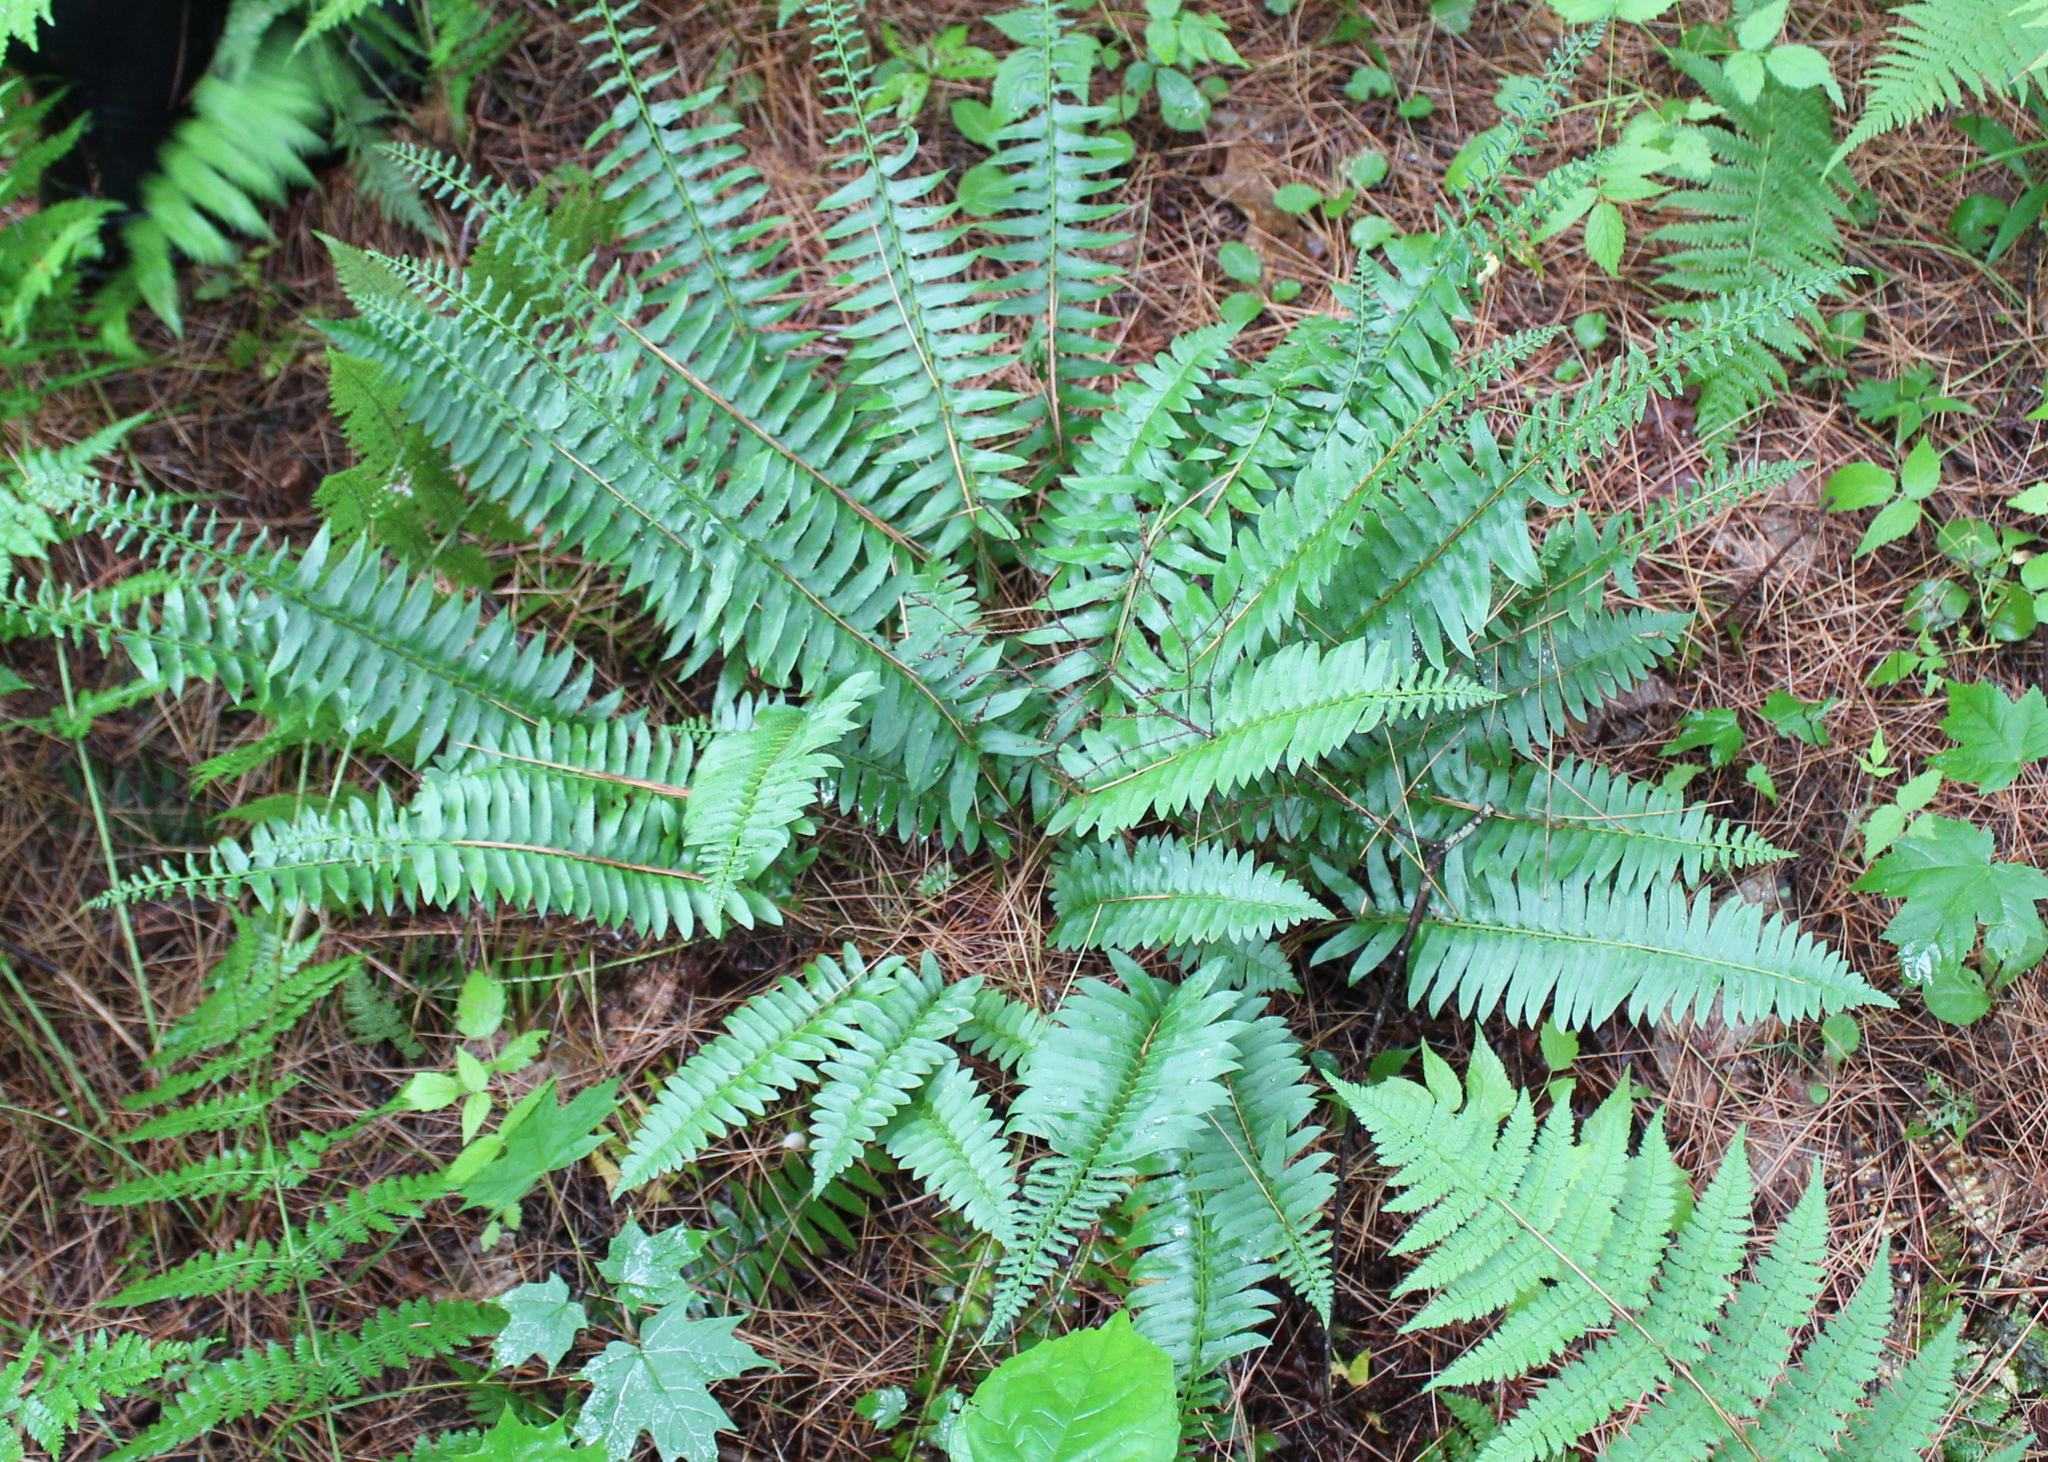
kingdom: Plantae
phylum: Tracheophyta
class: Polypodiopsida
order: Polypodiales
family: Dryopteridaceae
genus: Polystichum
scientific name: Polystichum acrostichoides
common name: Christmas fern
